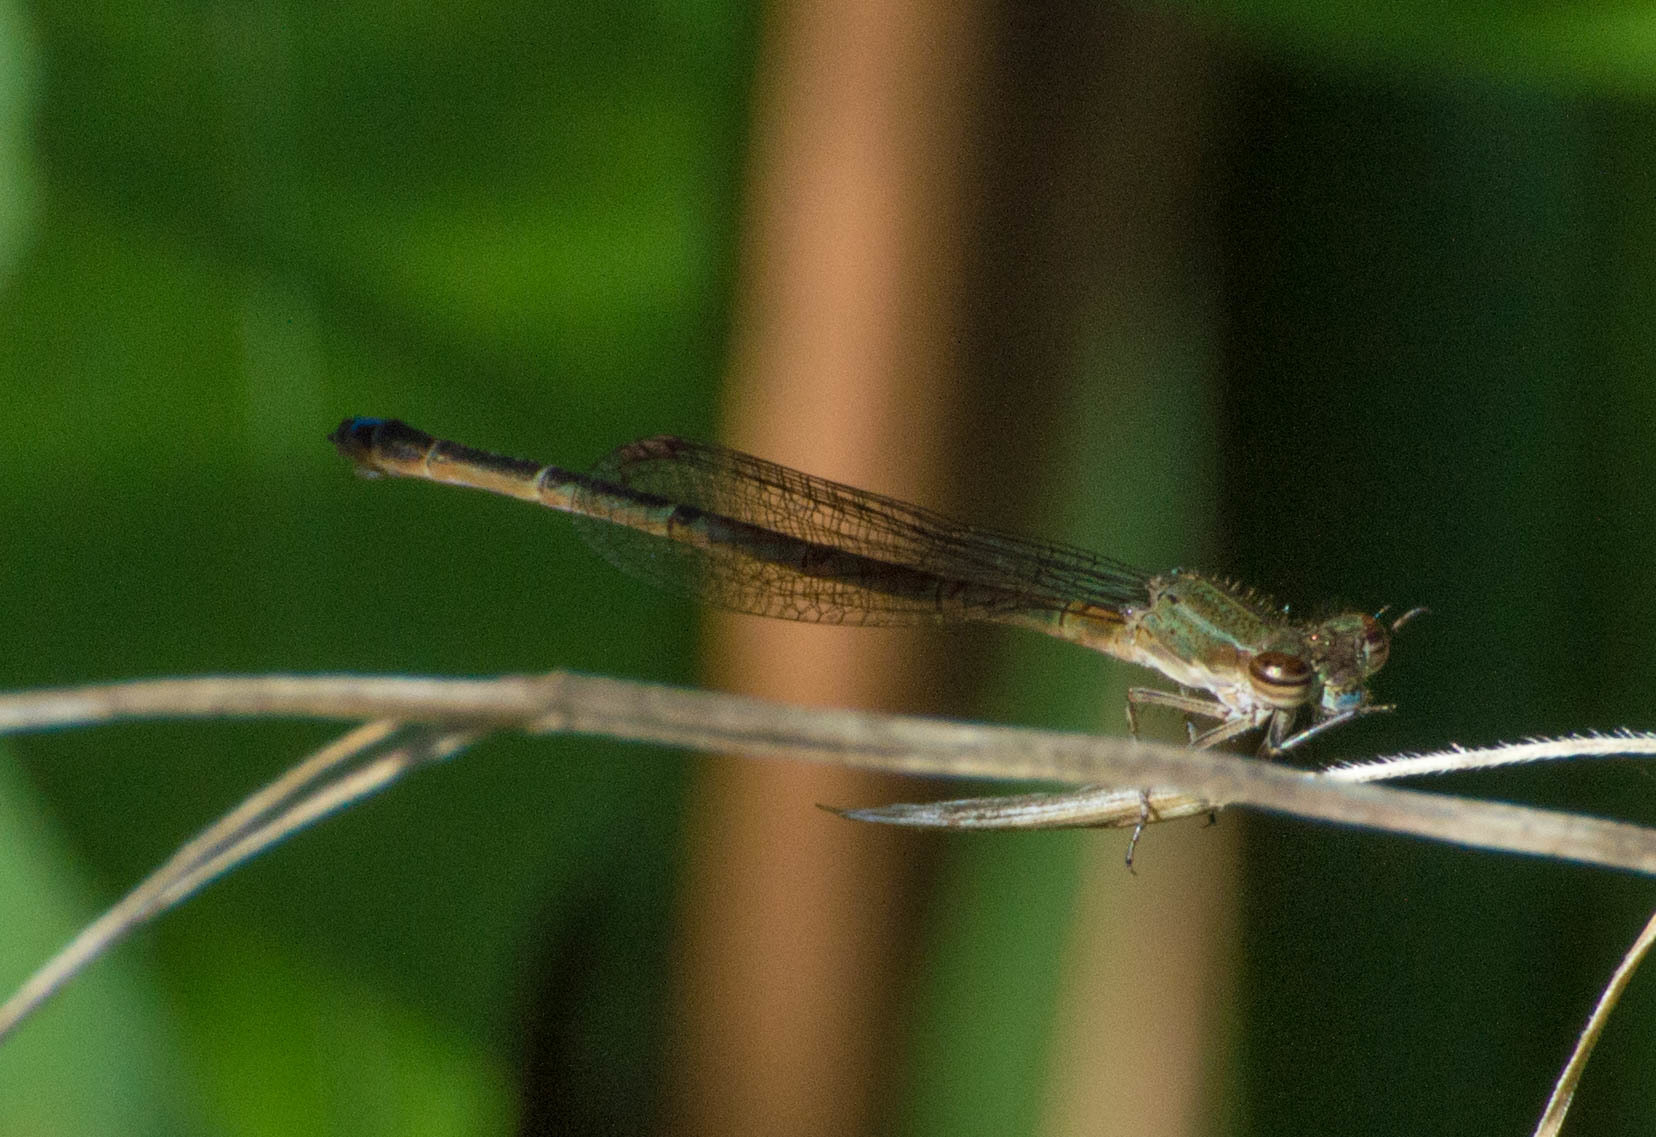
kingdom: Animalia
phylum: Arthropoda
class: Insecta
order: Odonata
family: Coenagrionidae
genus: Oxyagrion
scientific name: Oxyagrion terminale
